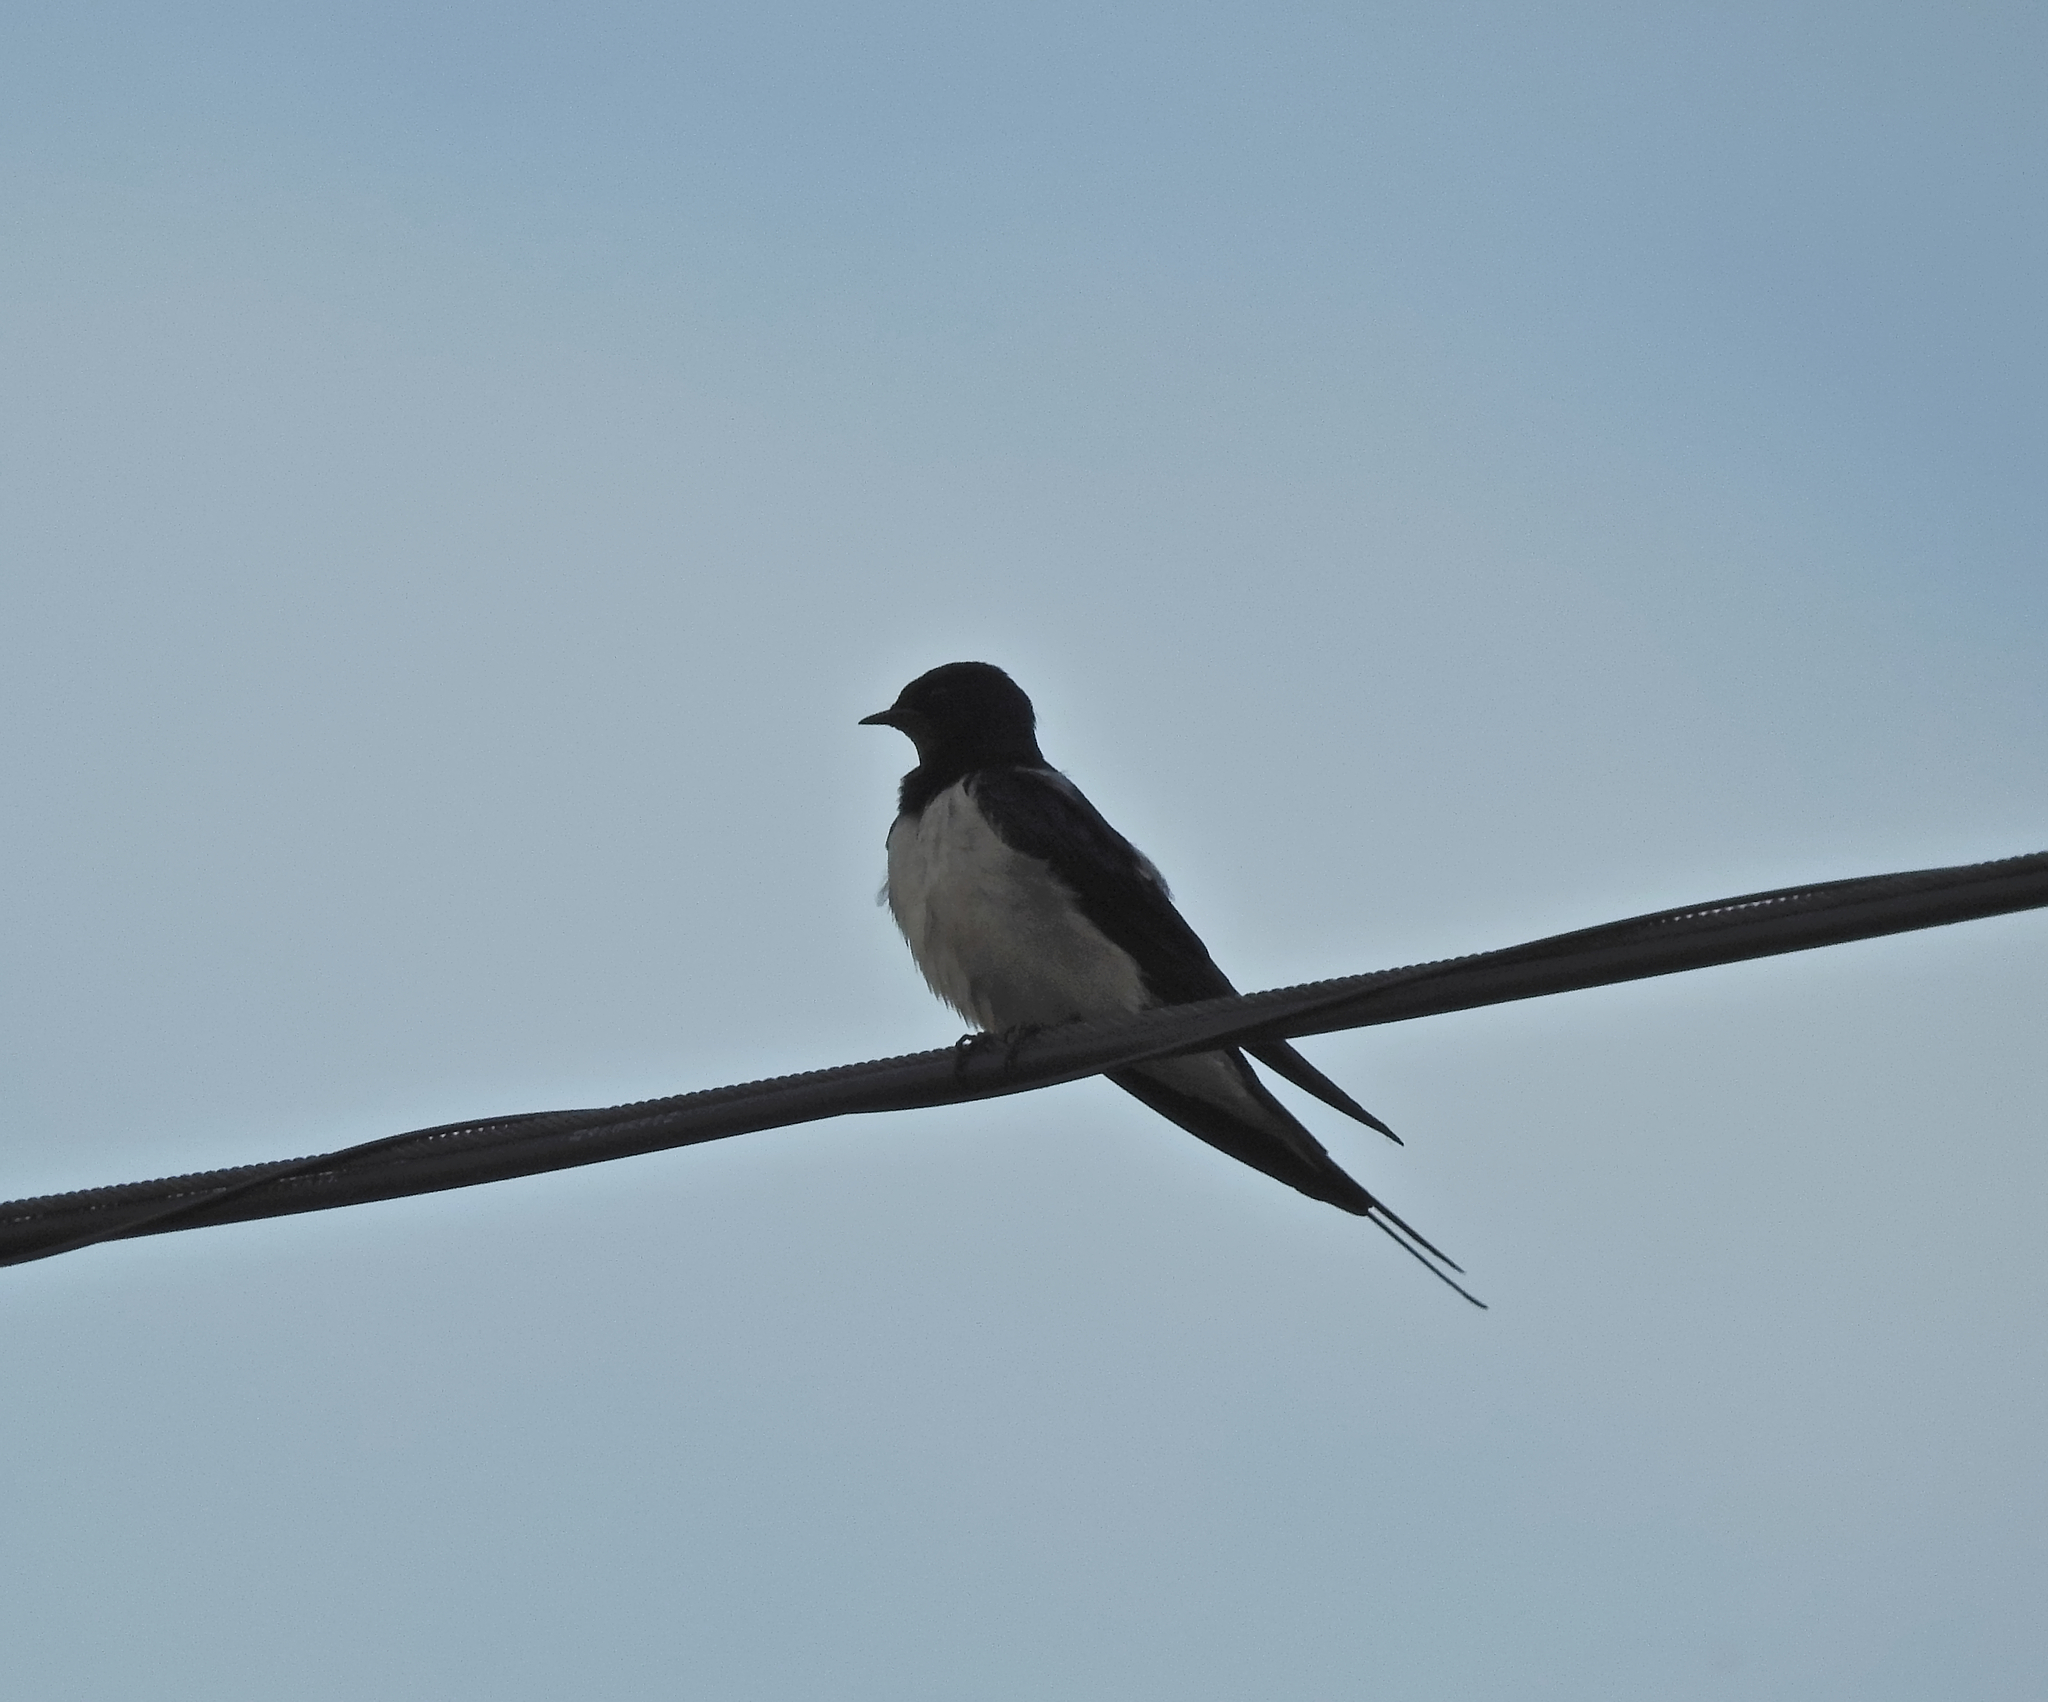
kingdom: Animalia
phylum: Chordata
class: Aves
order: Passeriformes
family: Hirundinidae
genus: Hirundo
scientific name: Hirundo rustica
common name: Barn swallow
